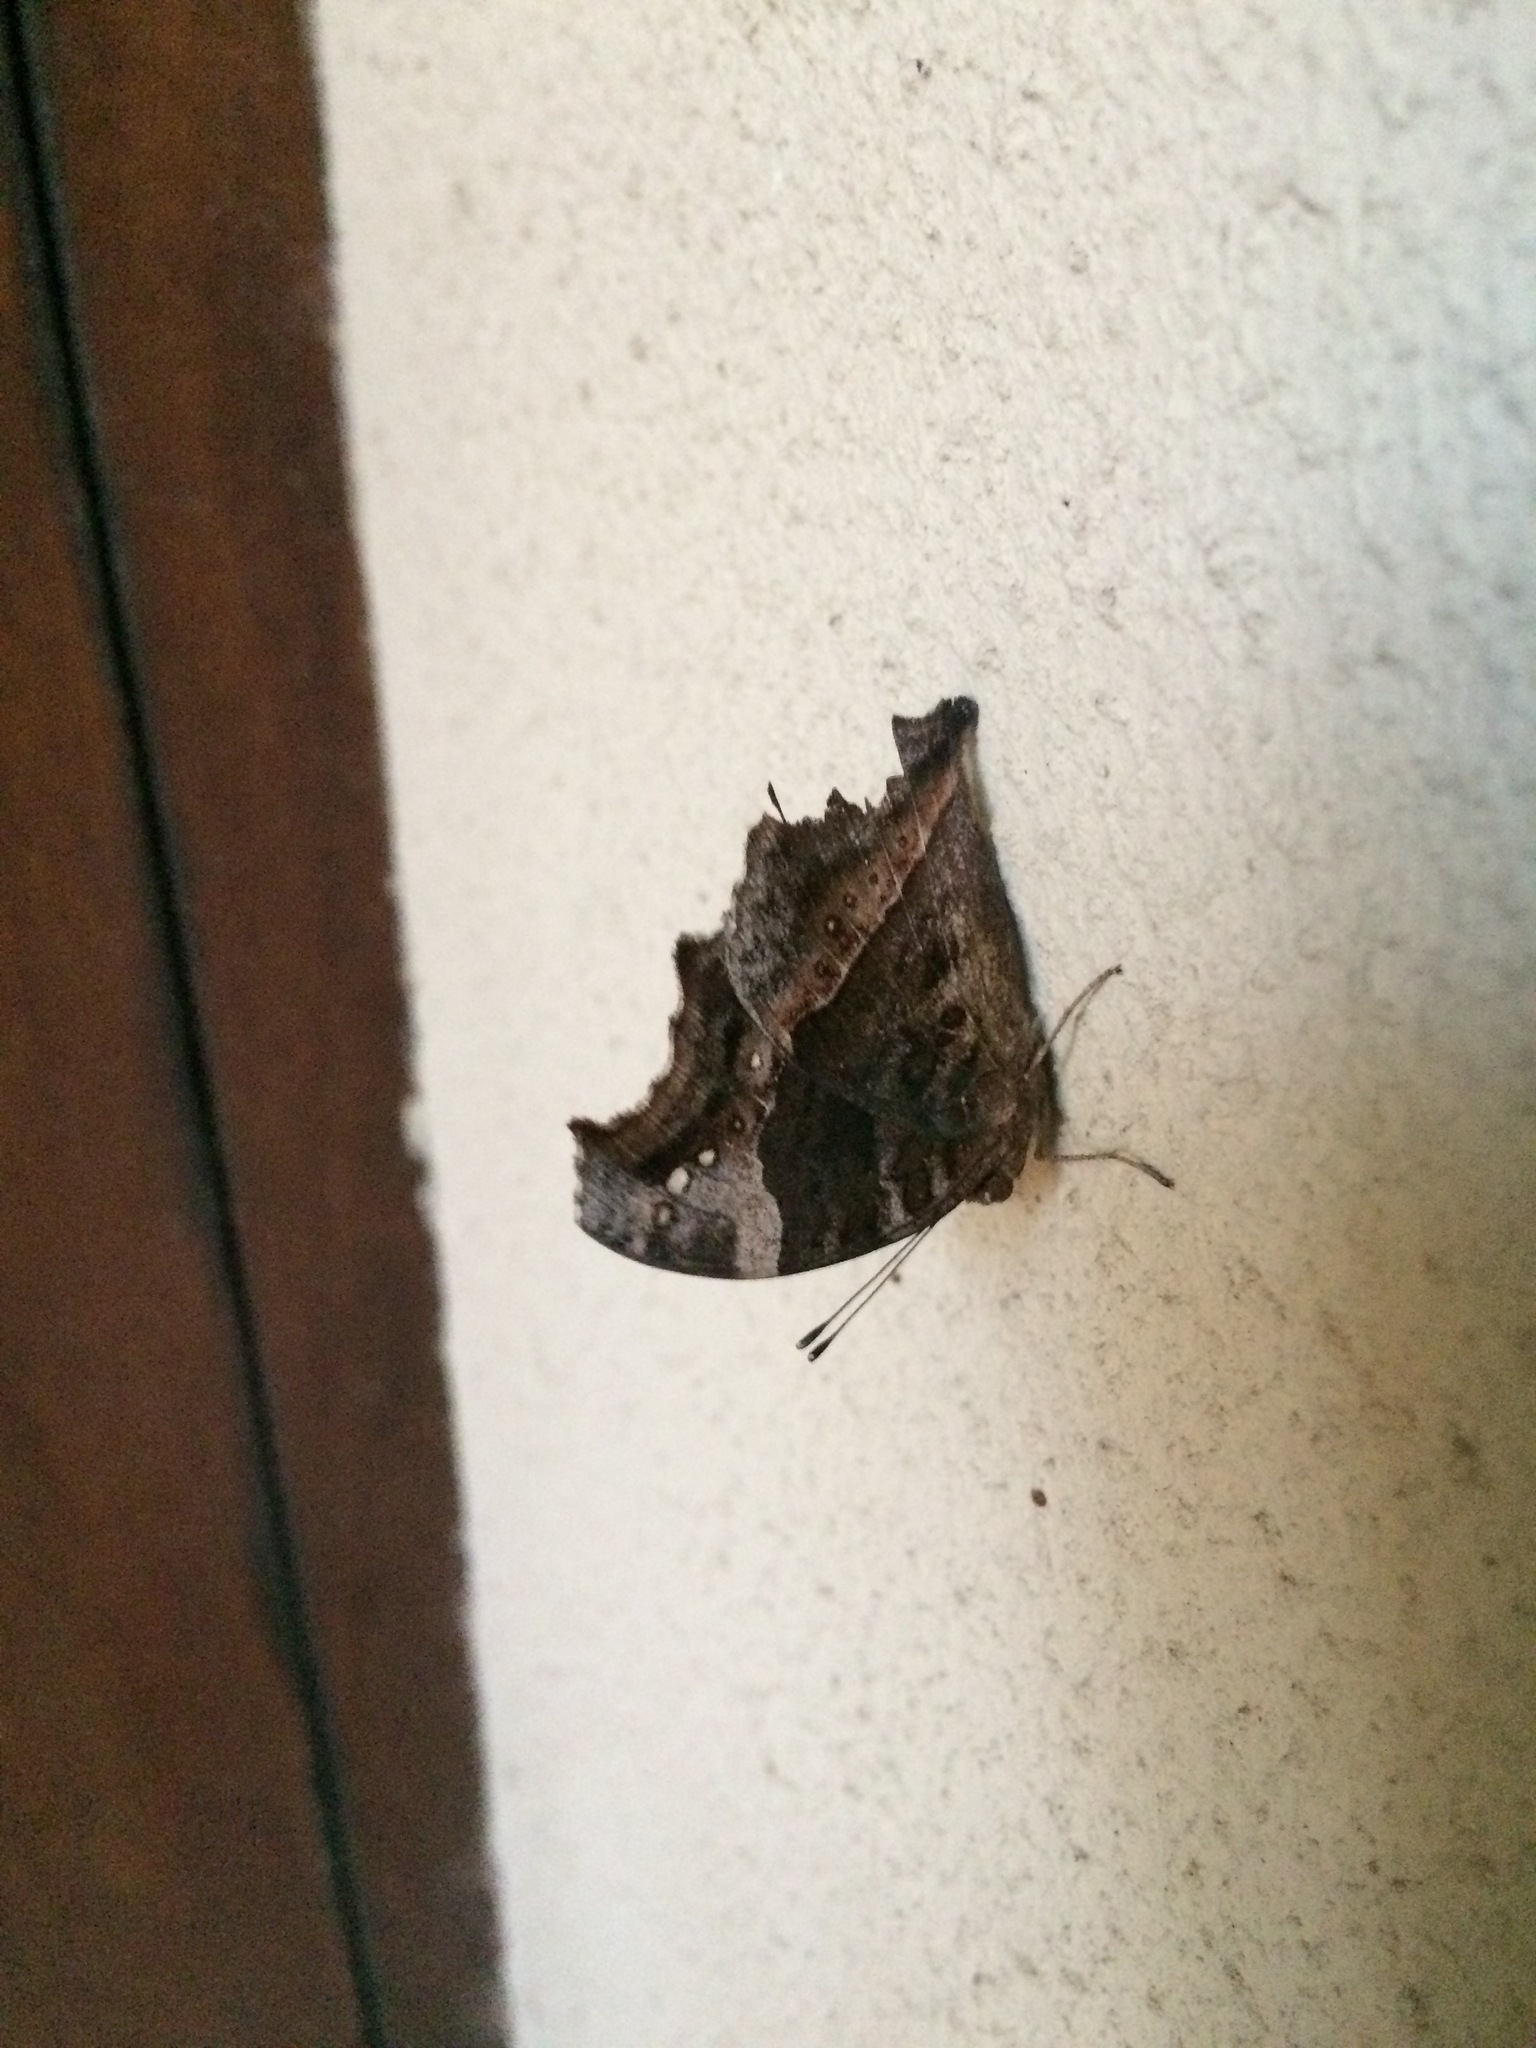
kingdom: Animalia
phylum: Arthropoda
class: Insecta
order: Lepidoptera
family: Nymphalidae
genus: Junonia
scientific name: Junonia archesia
